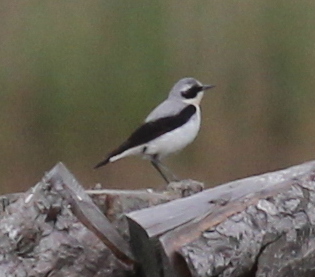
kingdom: Animalia
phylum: Chordata
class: Aves
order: Passeriformes
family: Muscicapidae
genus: Oenanthe
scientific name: Oenanthe oenanthe
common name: Northern wheatear
